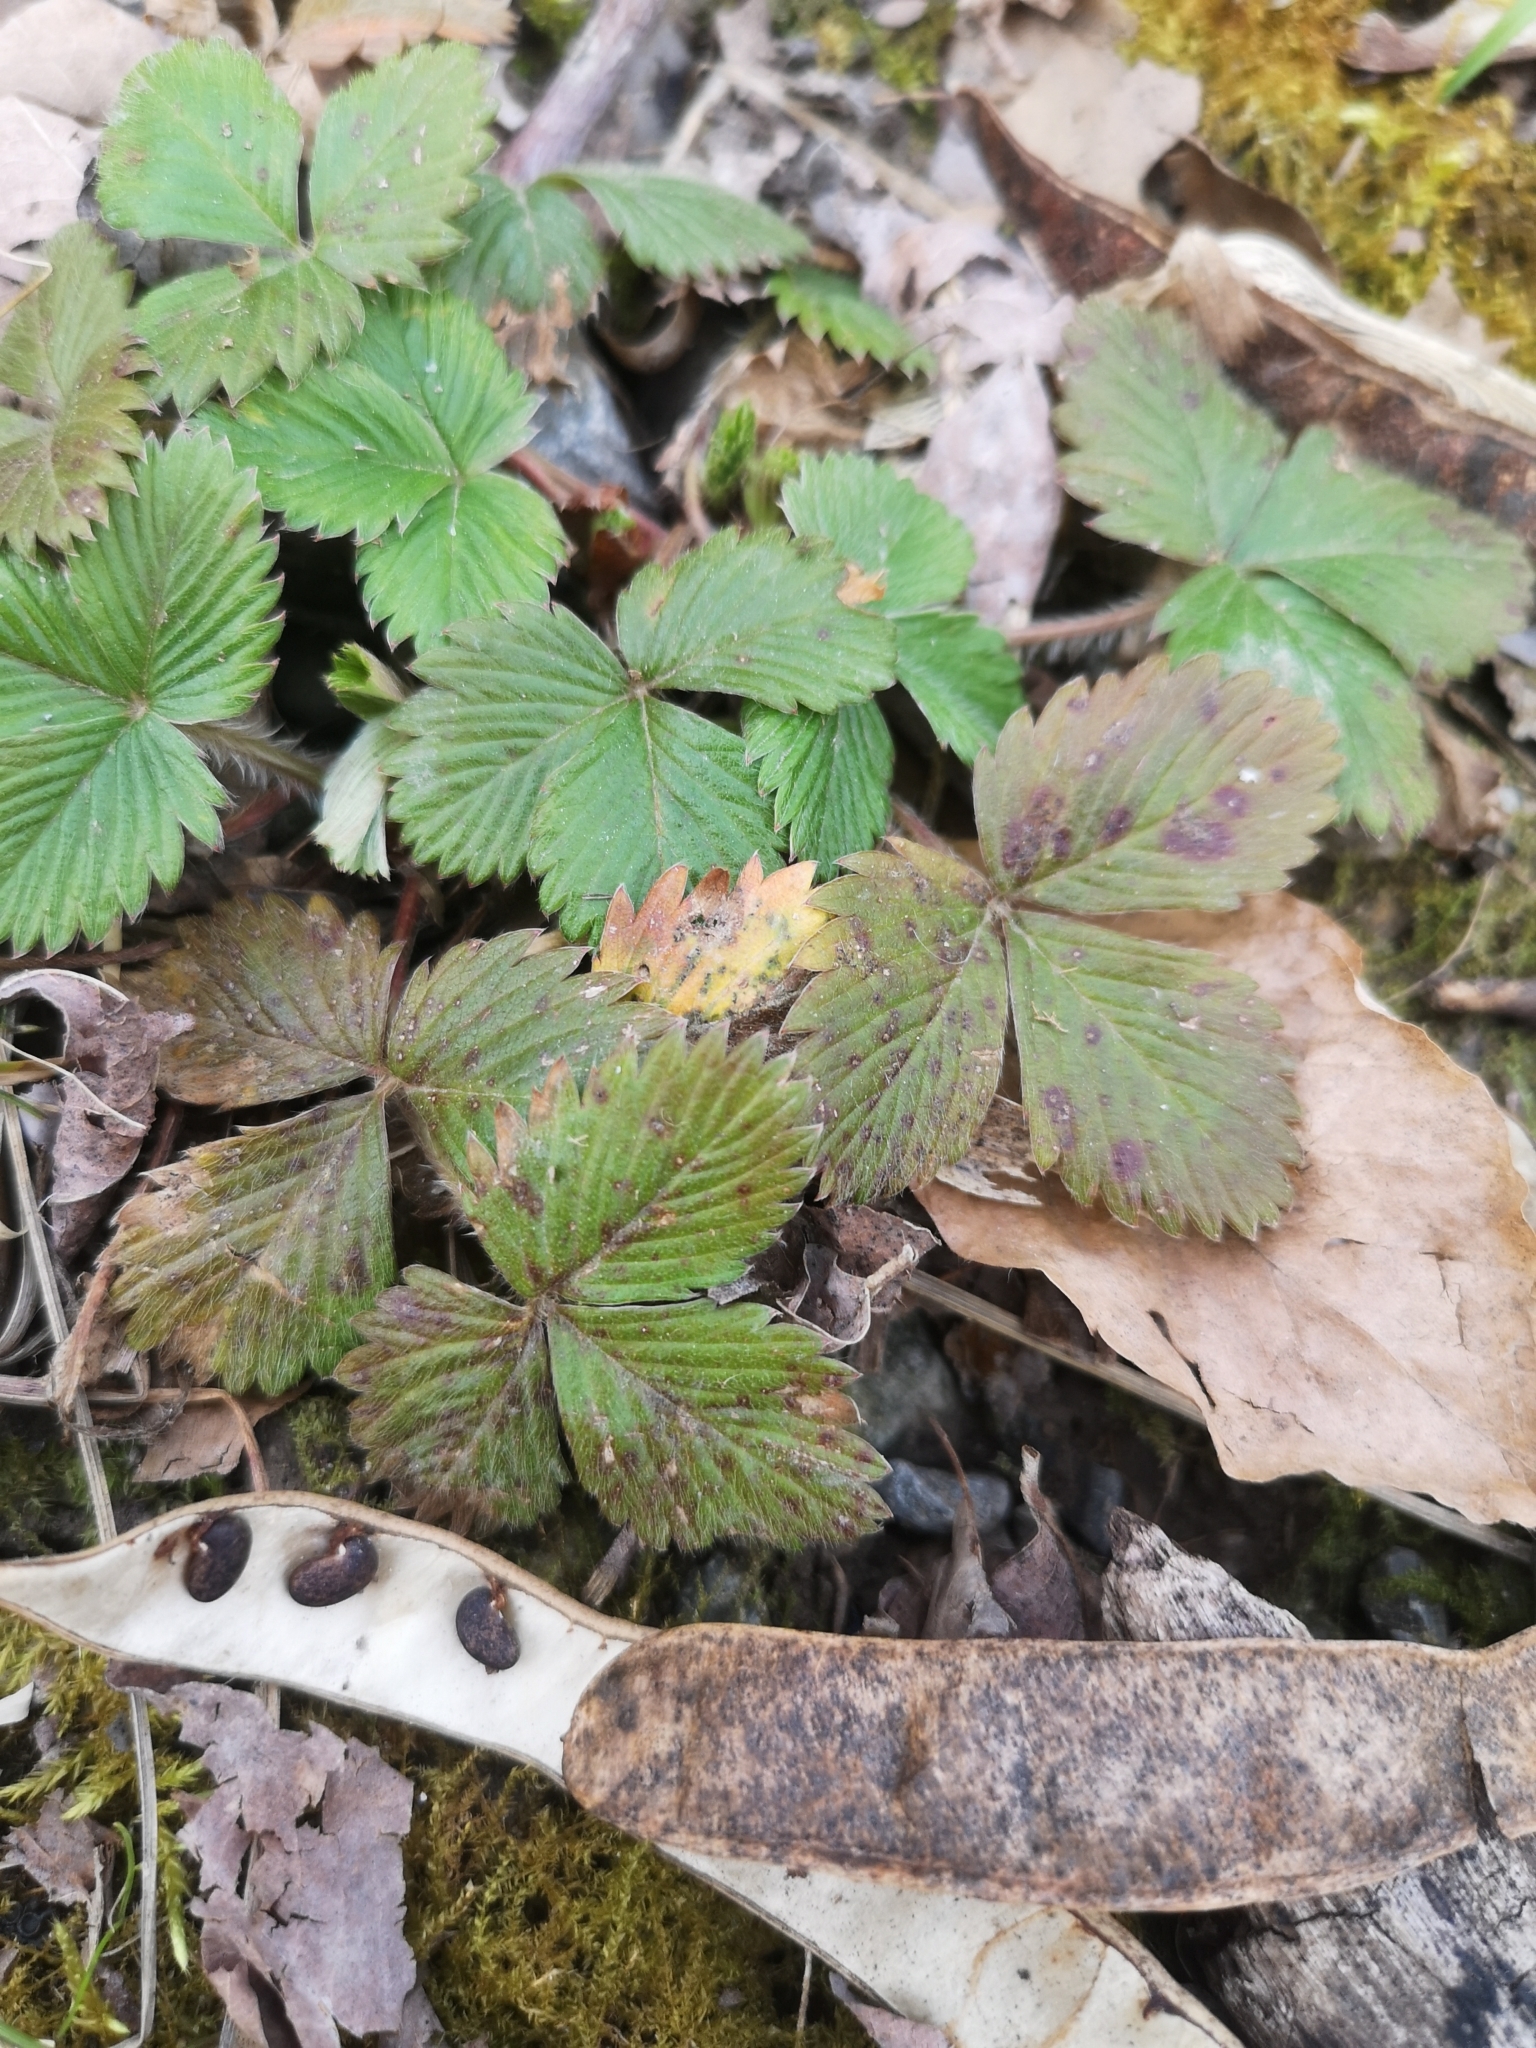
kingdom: Plantae
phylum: Tracheophyta
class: Magnoliopsida
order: Rosales
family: Rosaceae
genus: Fragaria
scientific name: Fragaria vesca
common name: Wild strawberry
